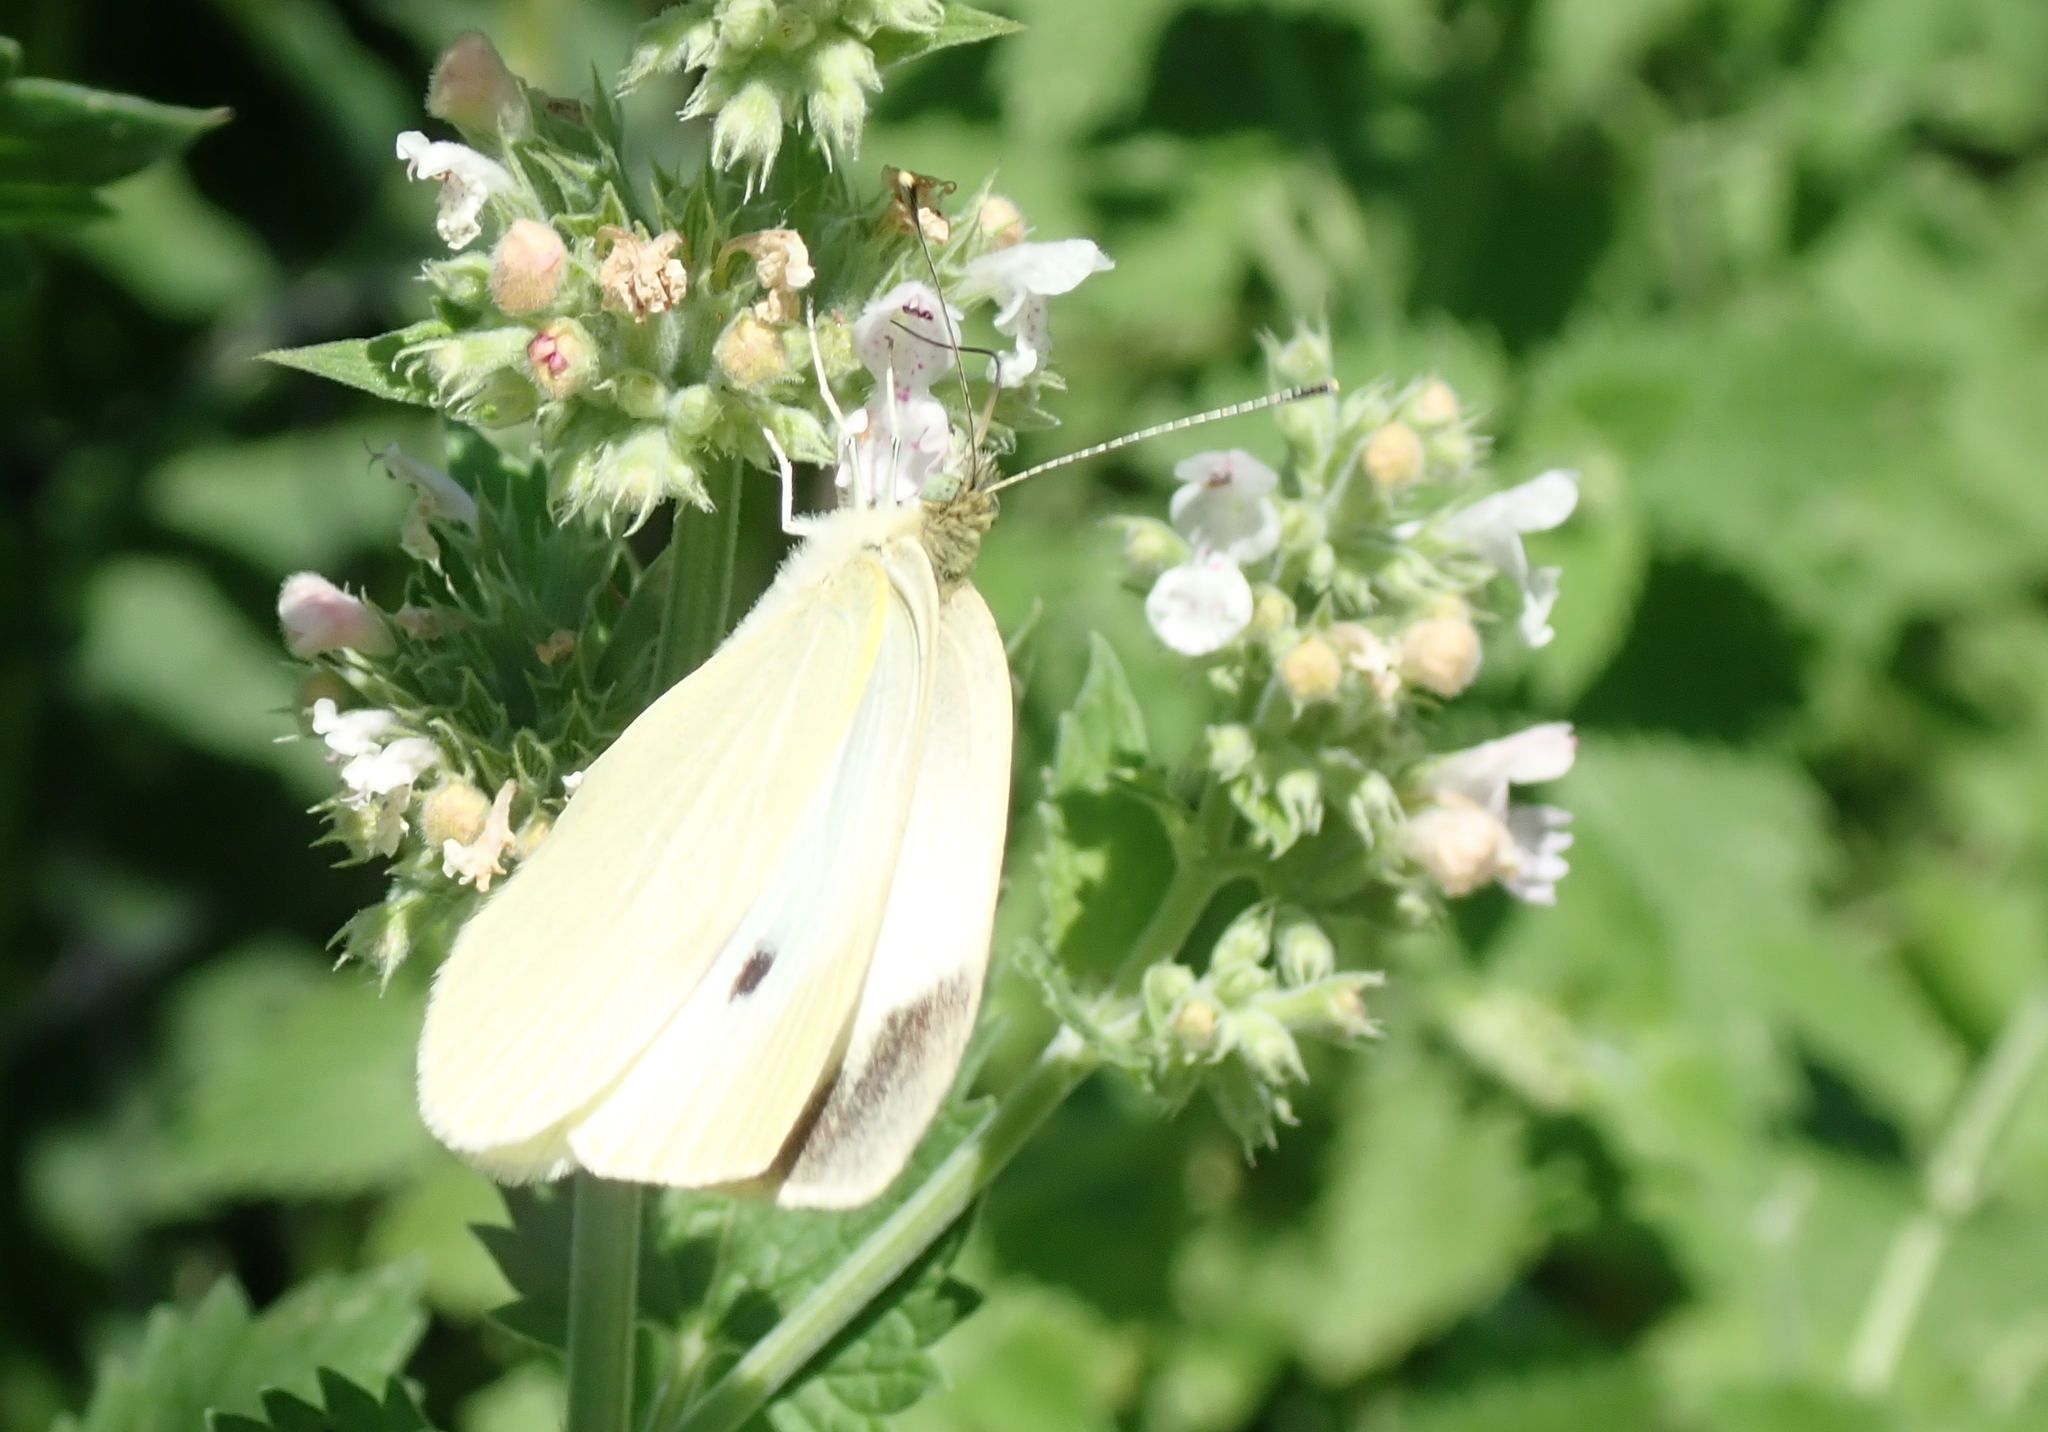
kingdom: Animalia
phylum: Arthropoda
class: Insecta
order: Lepidoptera
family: Pieridae
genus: Pieris
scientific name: Pieris rapae
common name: Small white
